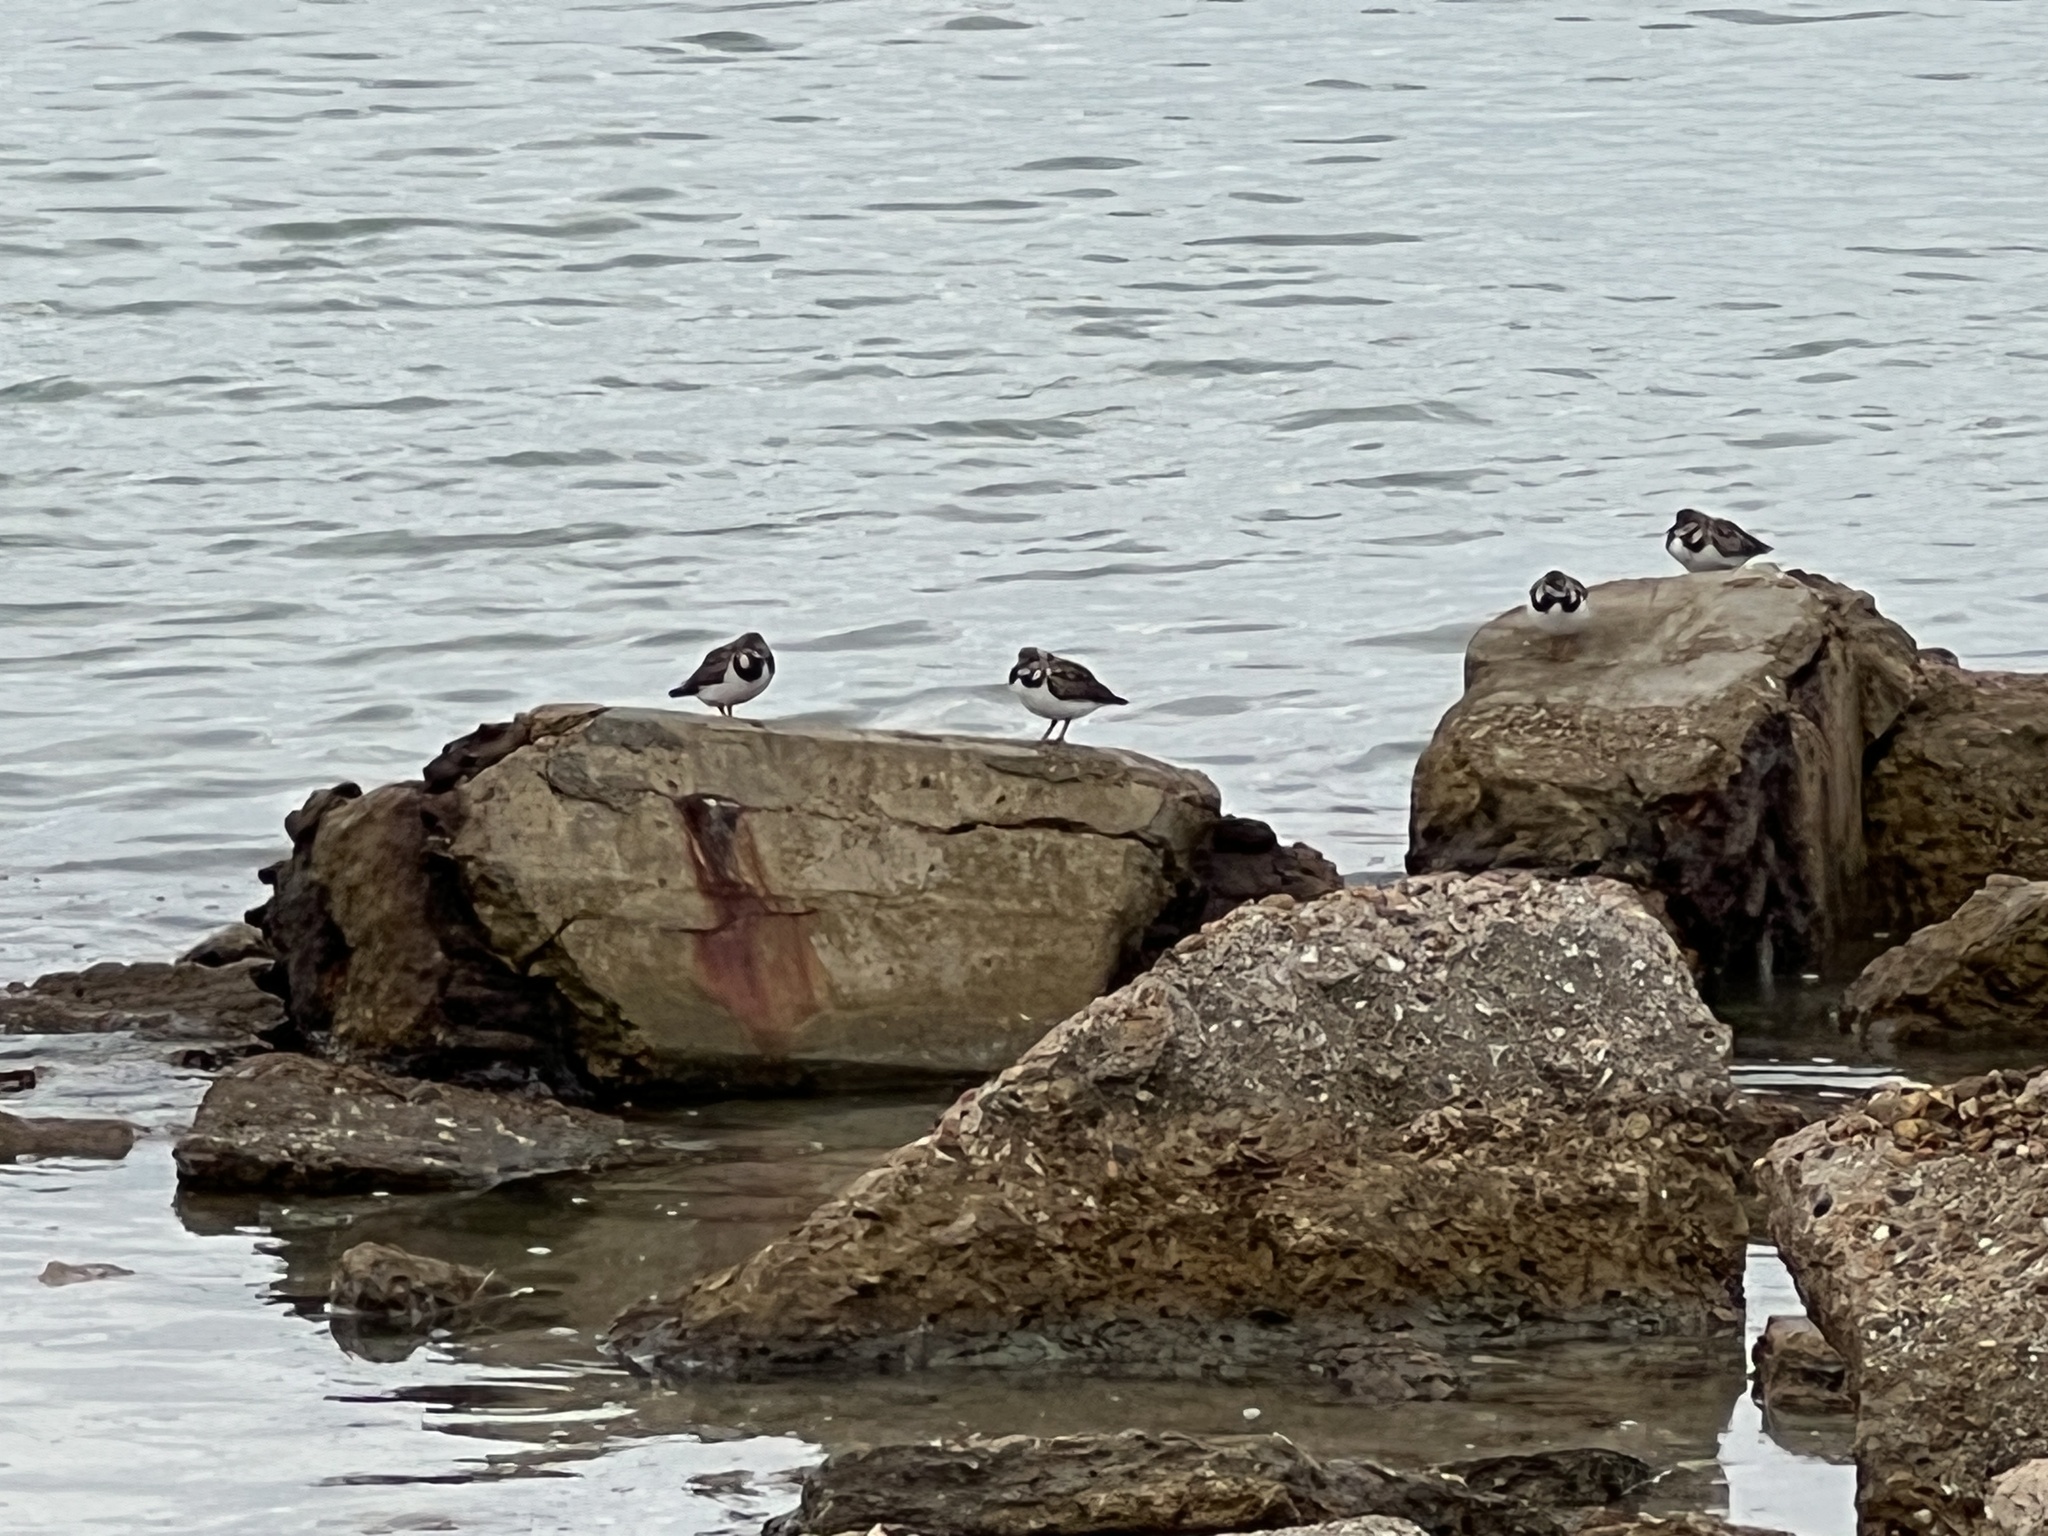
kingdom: Animalia
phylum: Chordata
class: Aves
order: Charadriiformes
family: Scolopacidae
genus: Arenaria
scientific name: Arenaria interpres
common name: Ruddy turnstone
